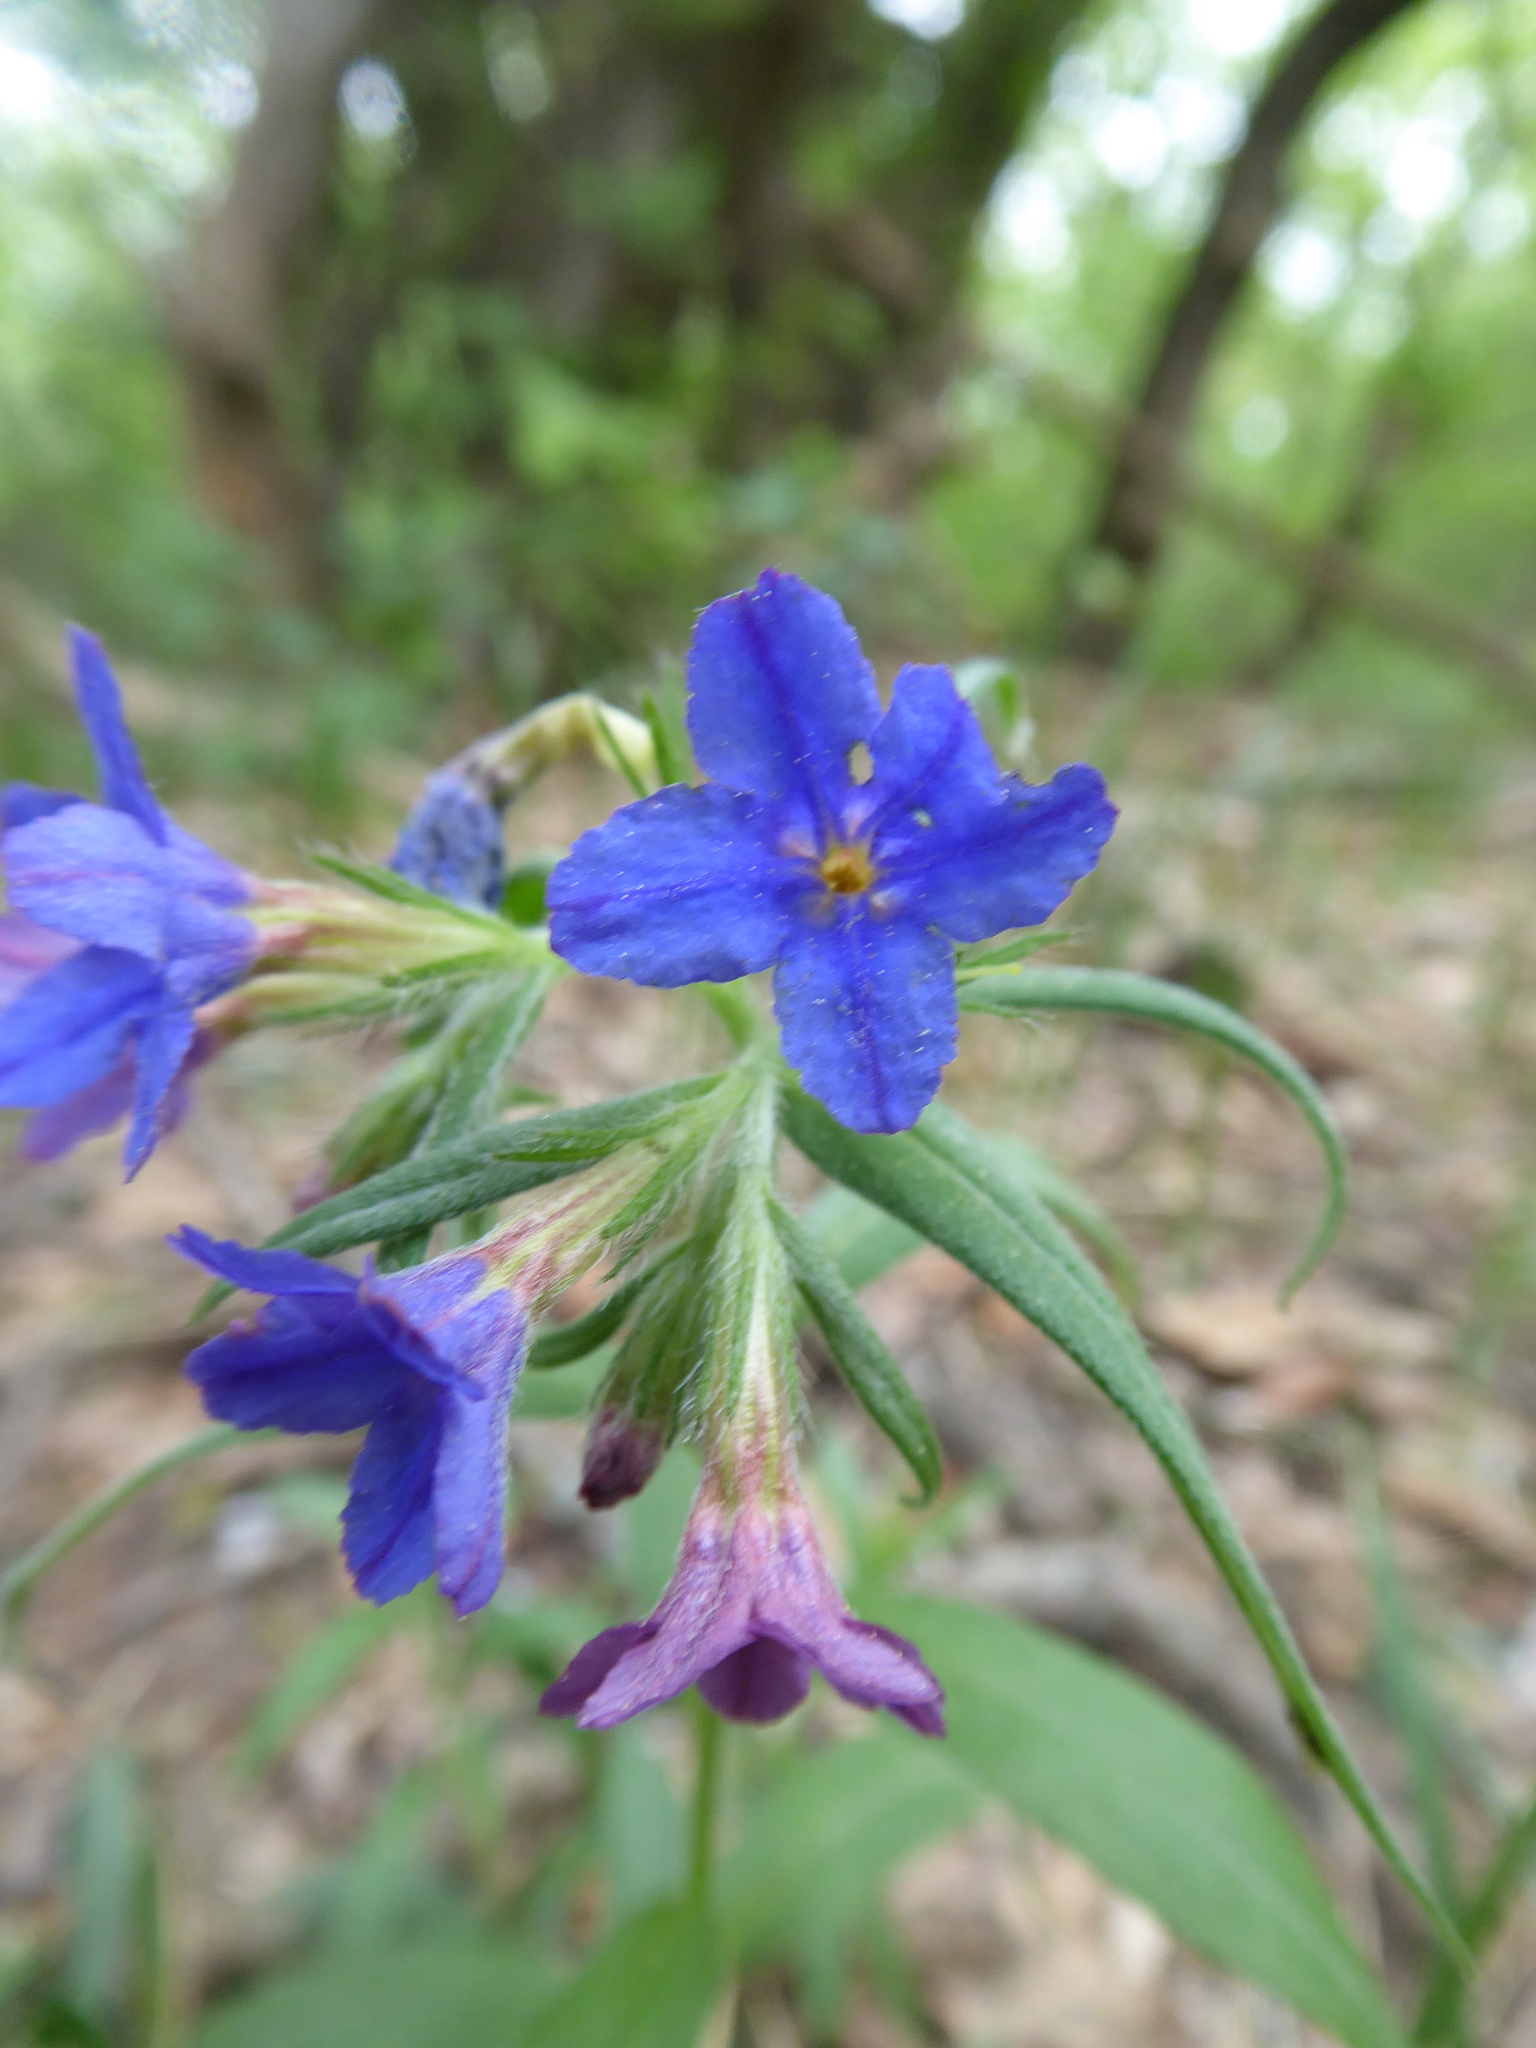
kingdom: Plantae
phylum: Tracheophyta
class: Magnoliopsida
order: Boraginales
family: Boraginaceae
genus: Aegonychon
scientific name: Aegonychon purpurocaeruleum
